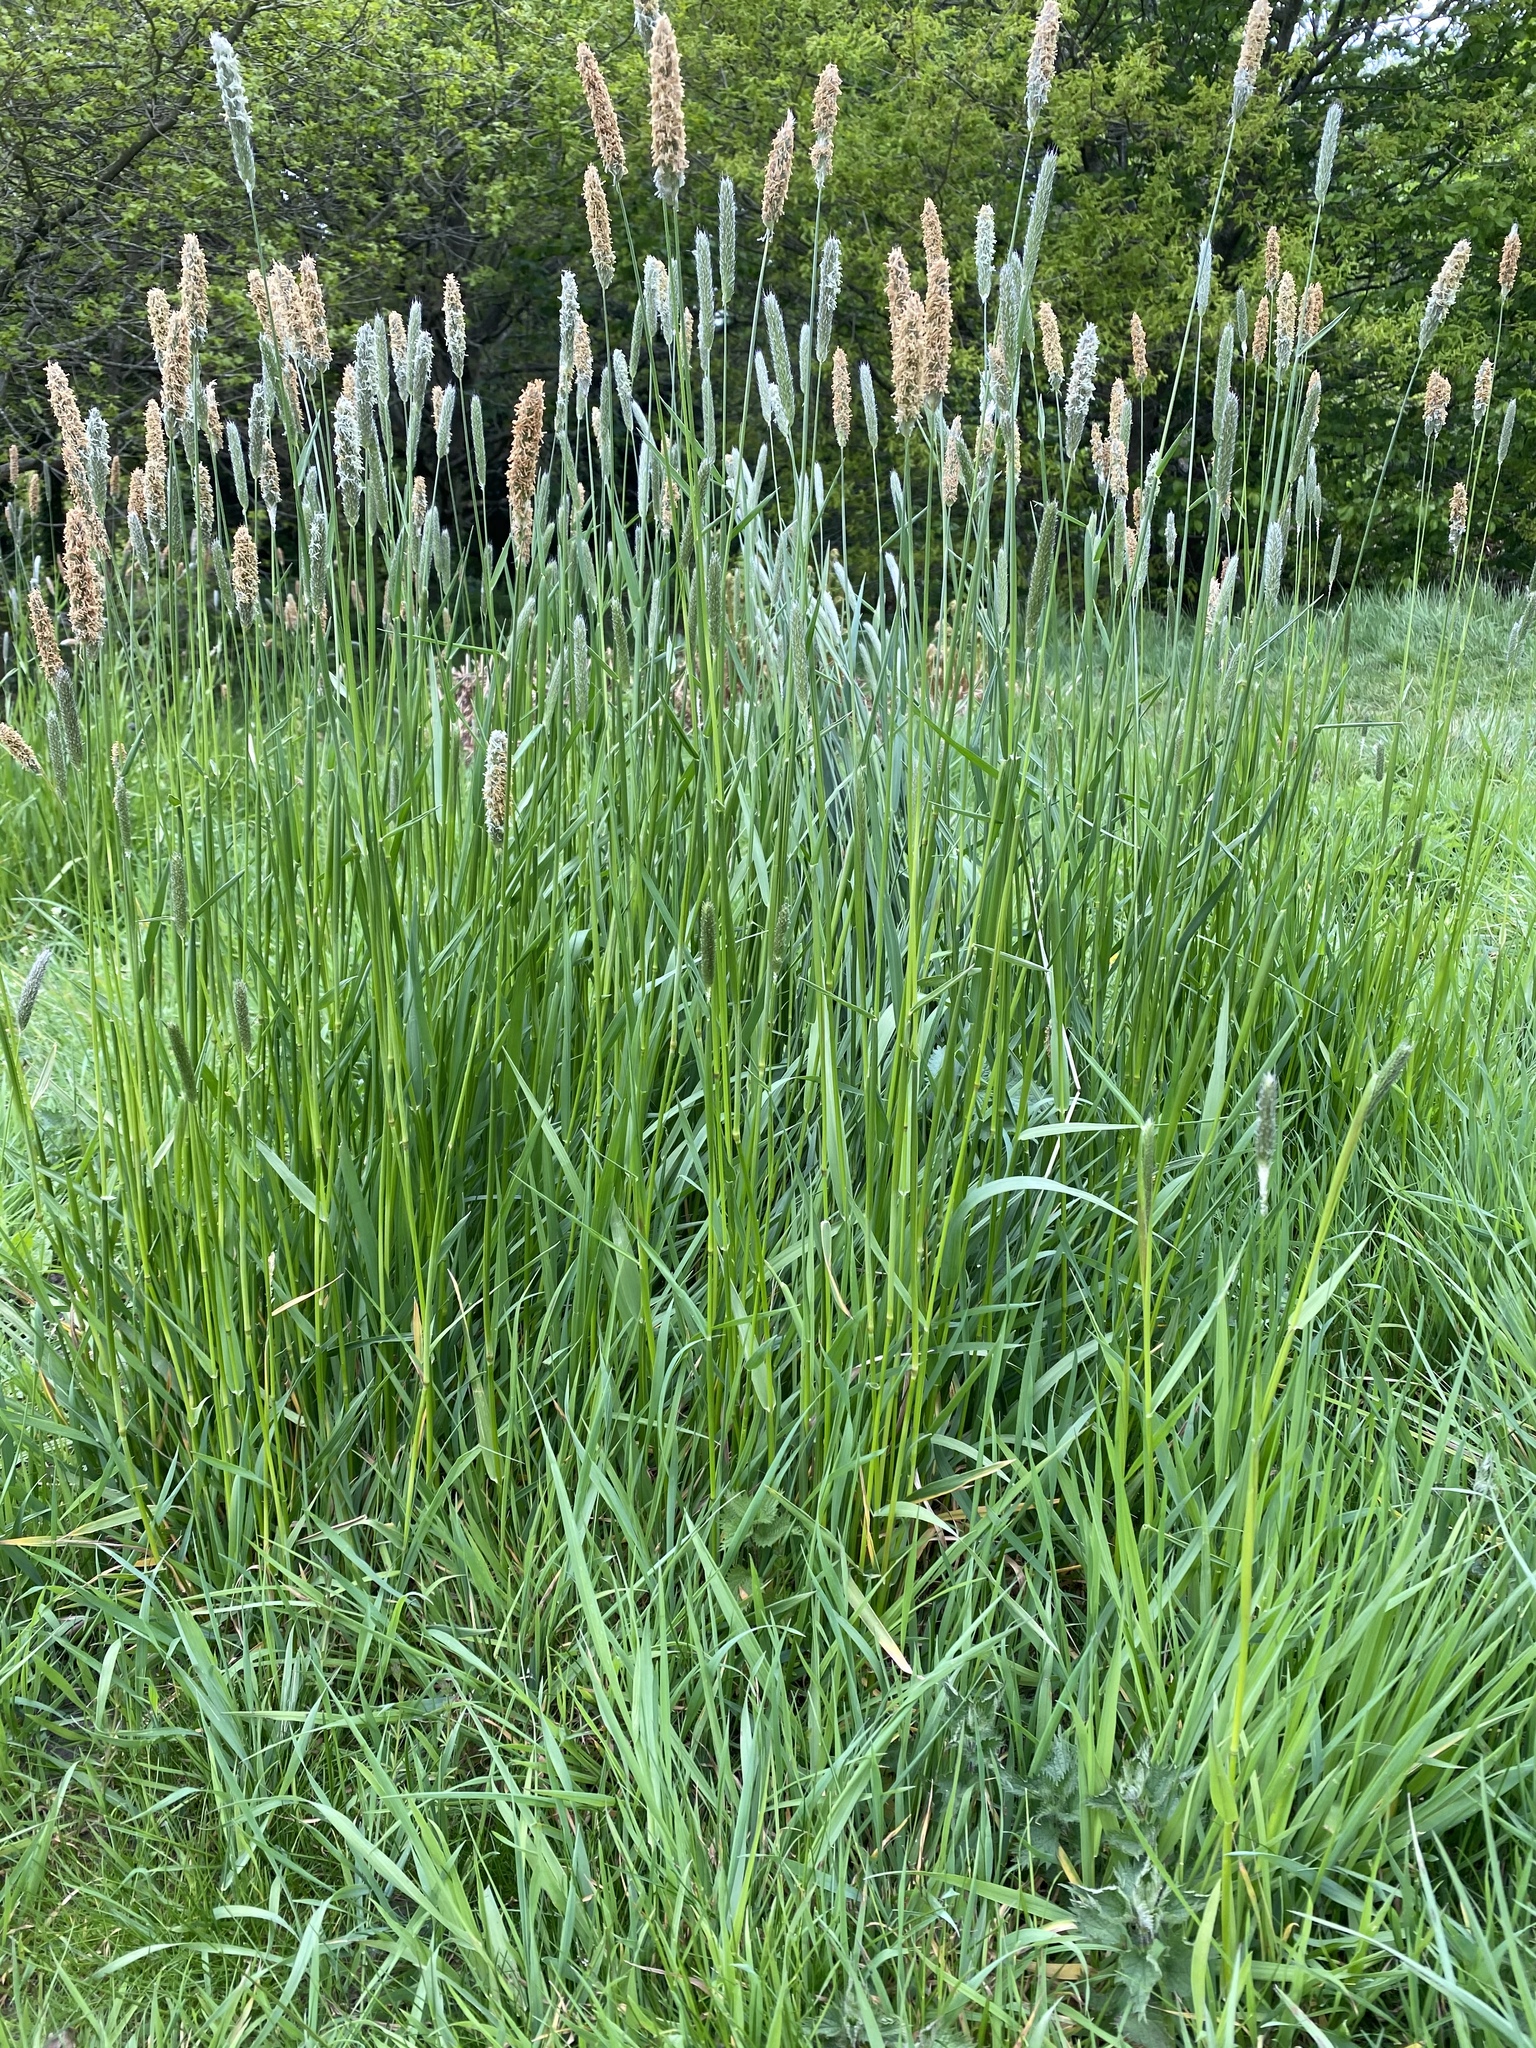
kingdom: Plantae
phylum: Tracheophyta
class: Liliopsida
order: Poales
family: Poaceae
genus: Alopecurus
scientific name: Alopecurus pratensis
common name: Meadow foxtail
